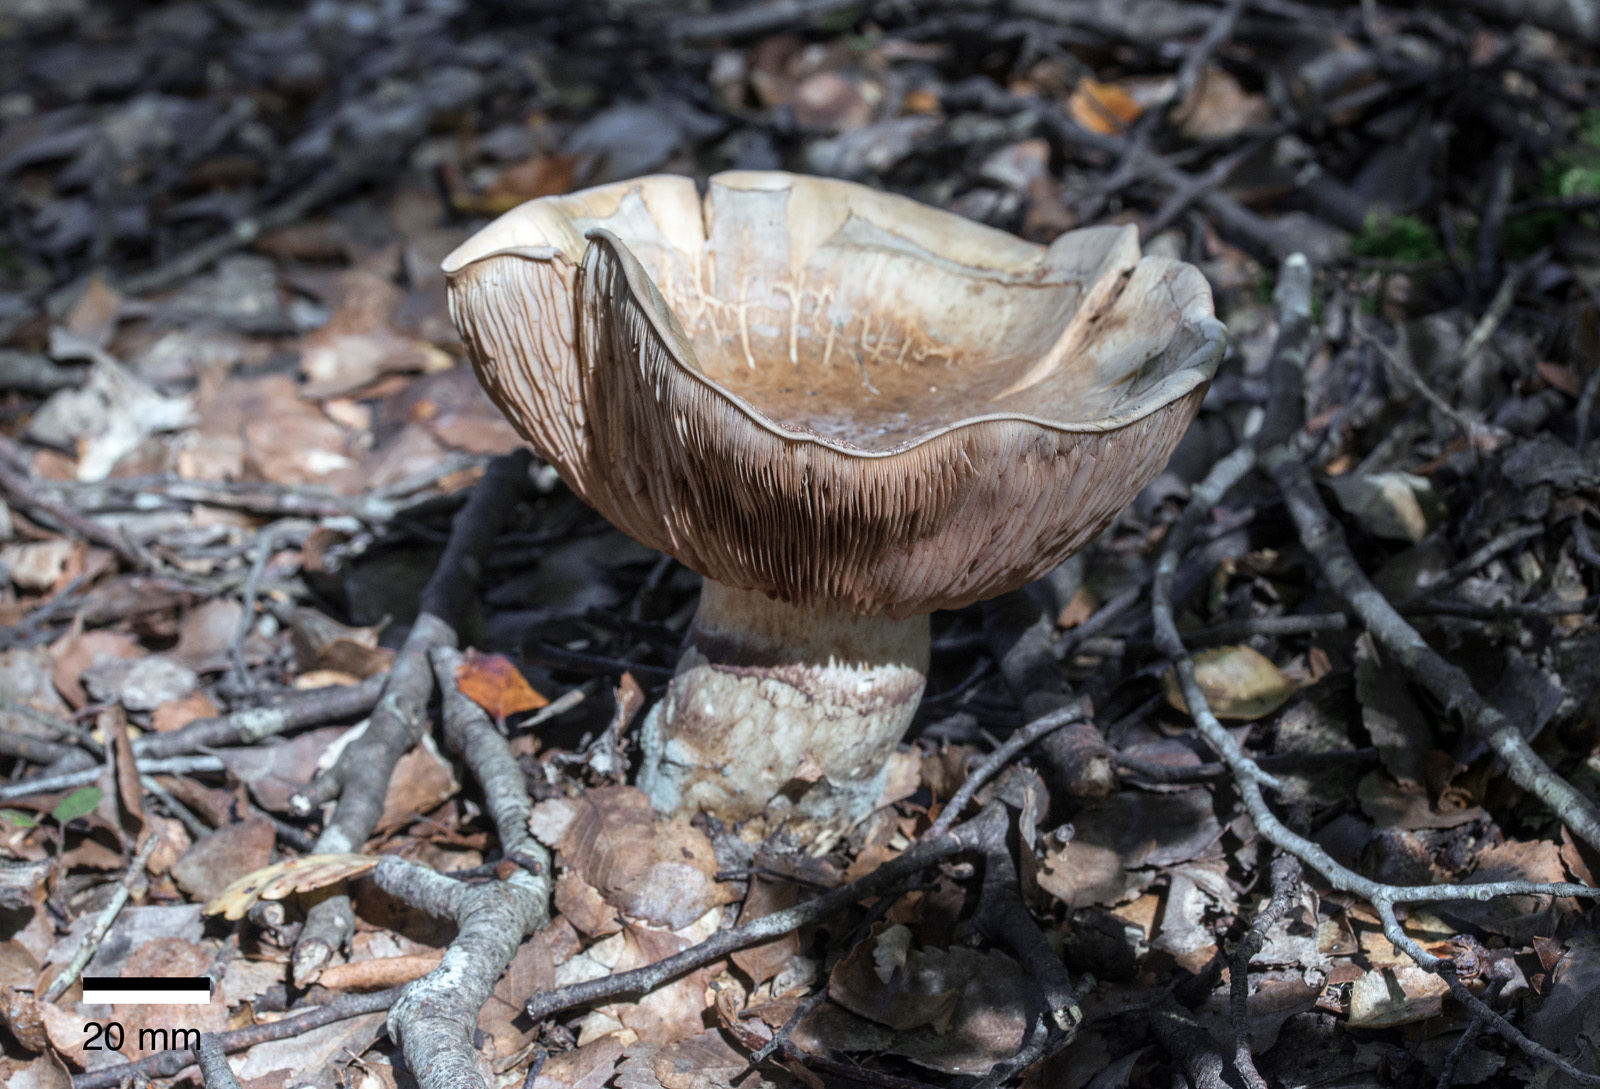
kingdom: Fungi
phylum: Basidiomycota
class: Agaricomycetes
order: Agaricales
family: Cortinariaceae
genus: Austrocortinarius
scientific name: Austrocortinarius australiensis
